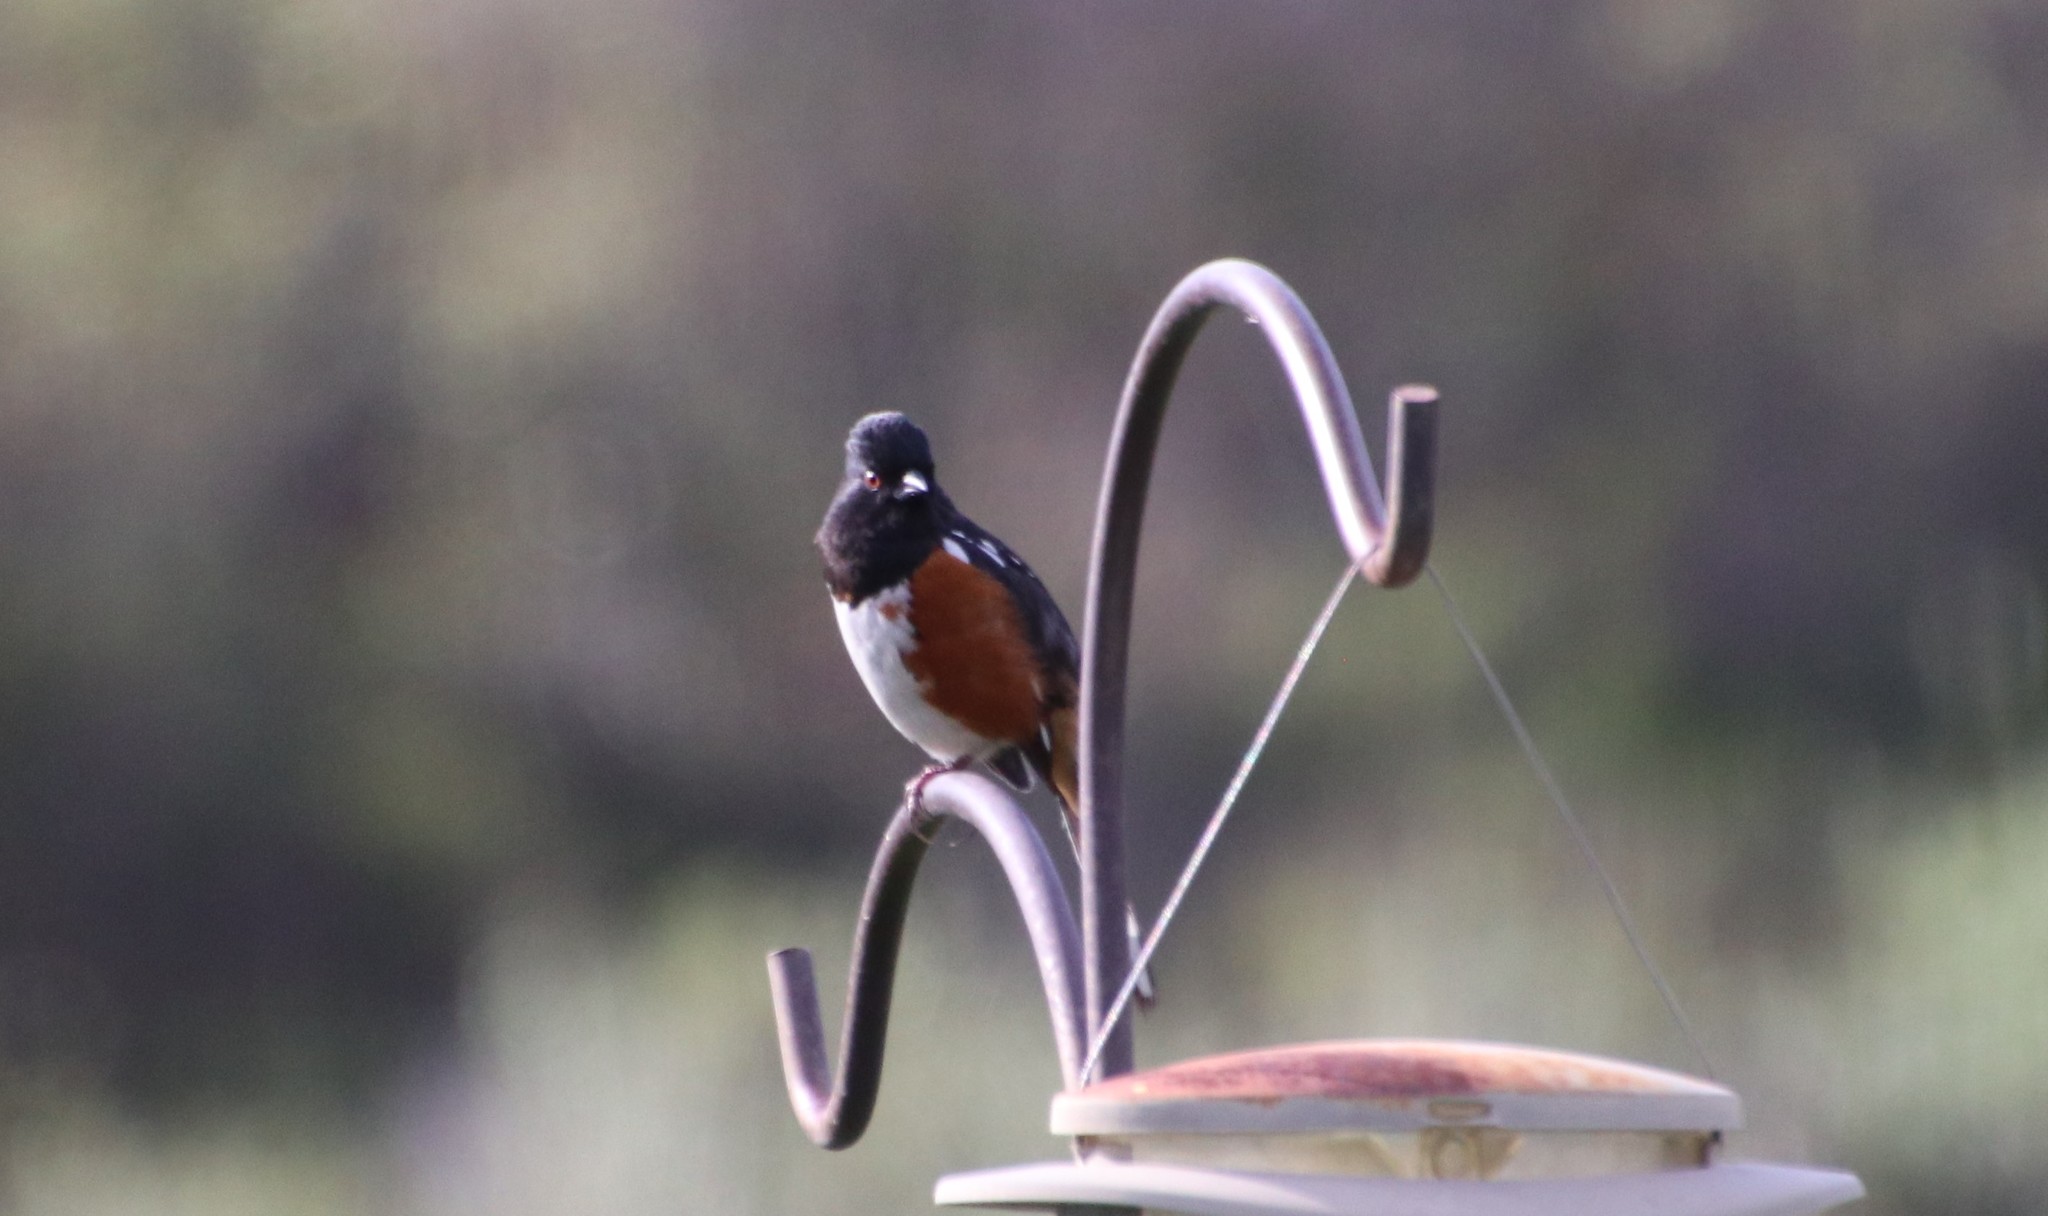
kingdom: Animalia
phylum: Chordata
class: Aves
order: Passeriformes
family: Passerellidae
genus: Pipilo
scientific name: Pipilo maculatus
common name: Spotted towhee
